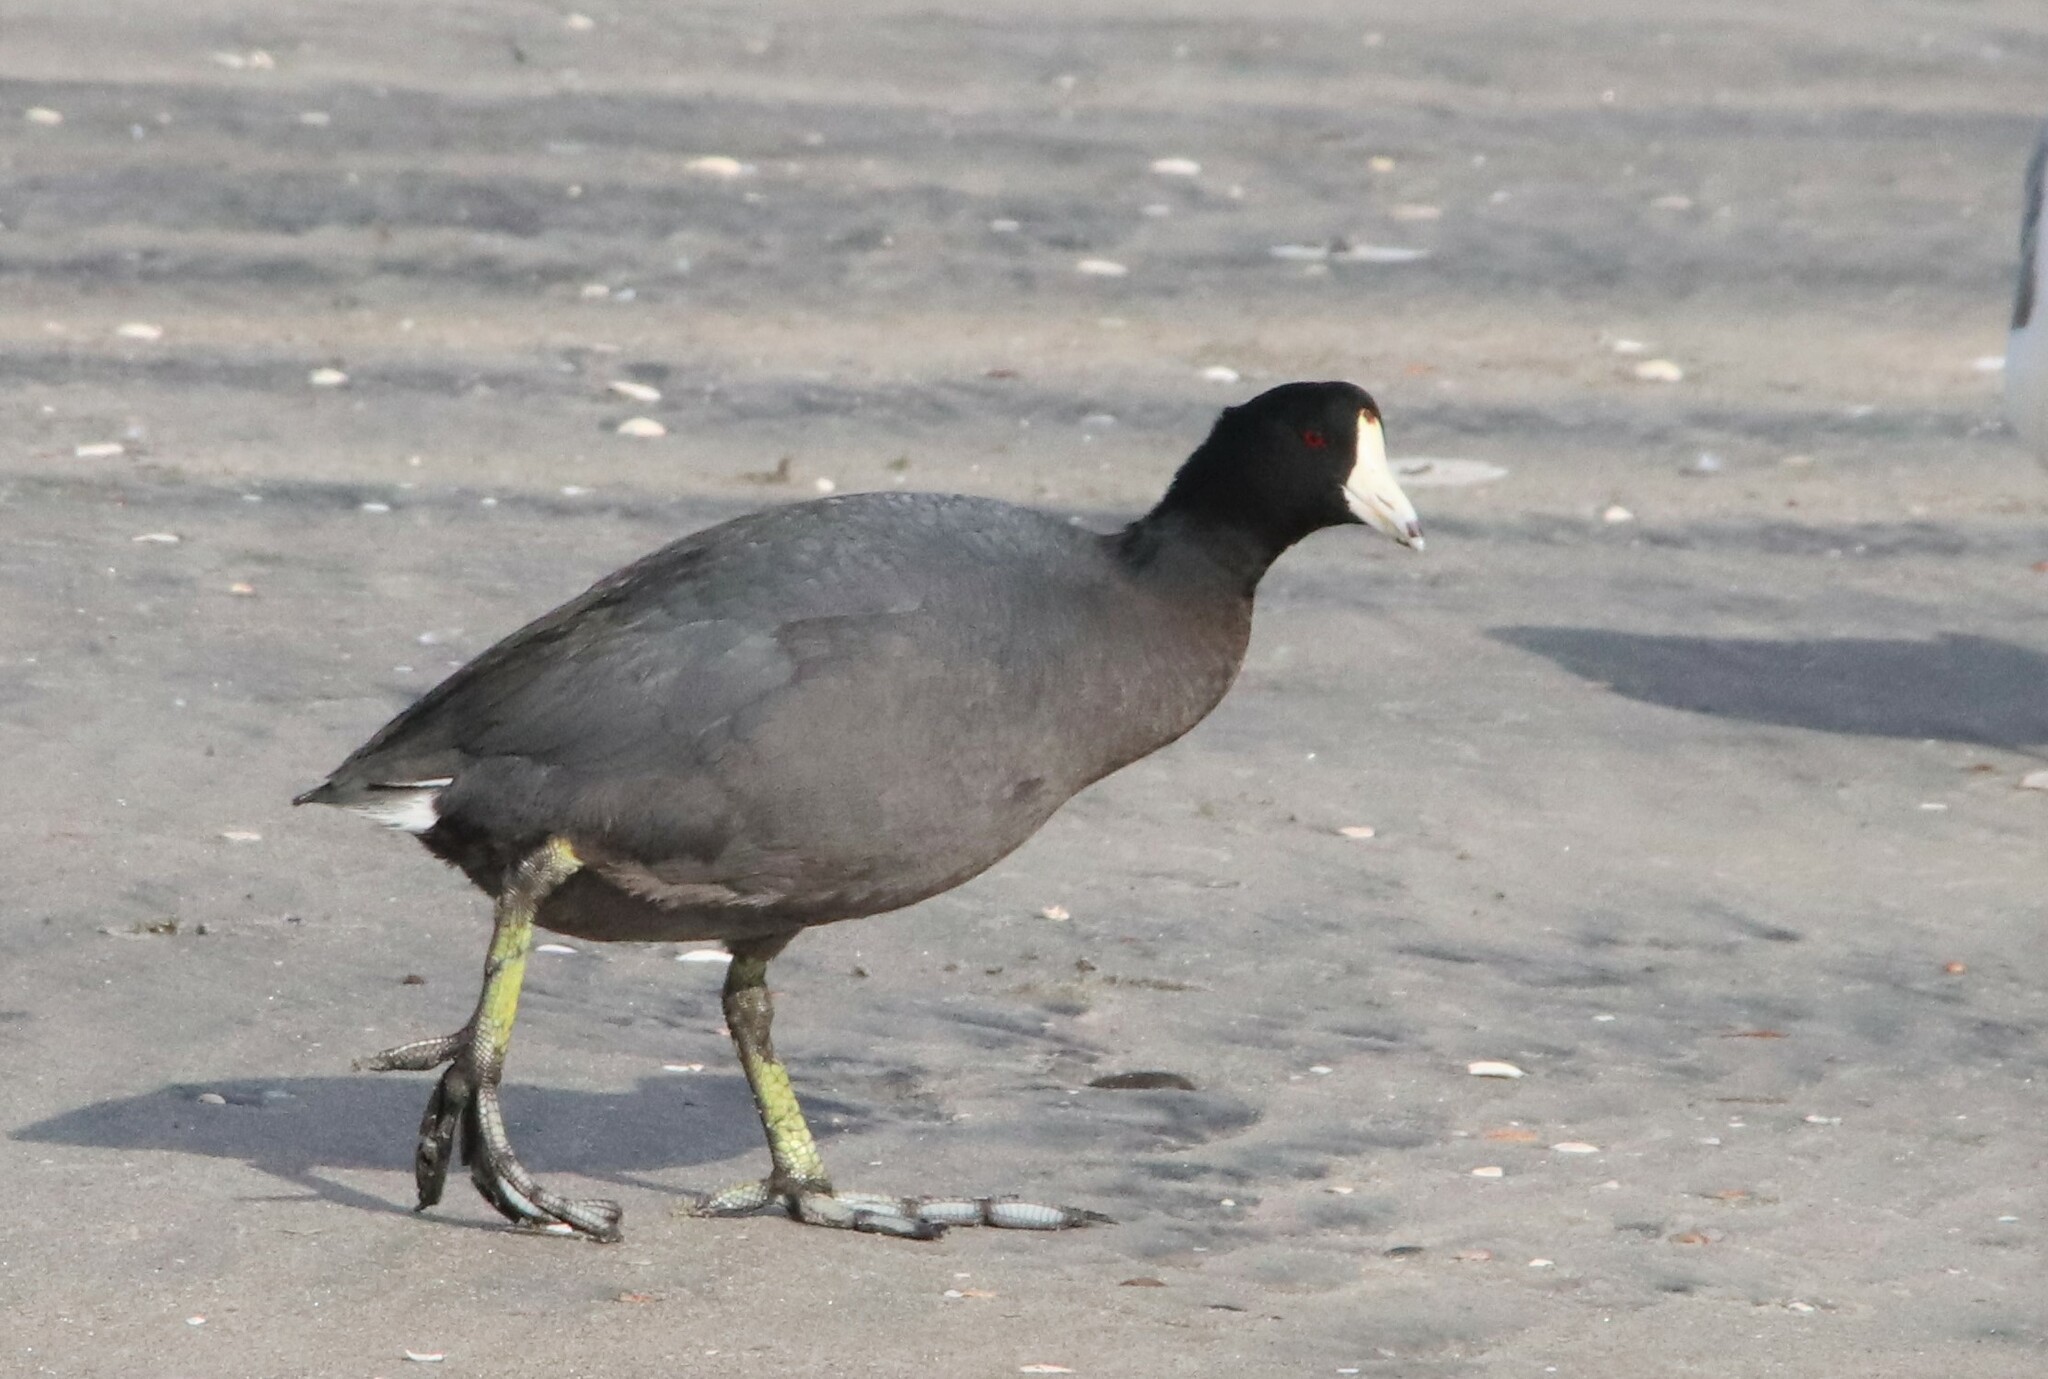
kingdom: Animalia
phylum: Chordata
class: Aves
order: Gruiformes
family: Rallidae
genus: Fulica
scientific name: Fulica americana
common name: American coot
